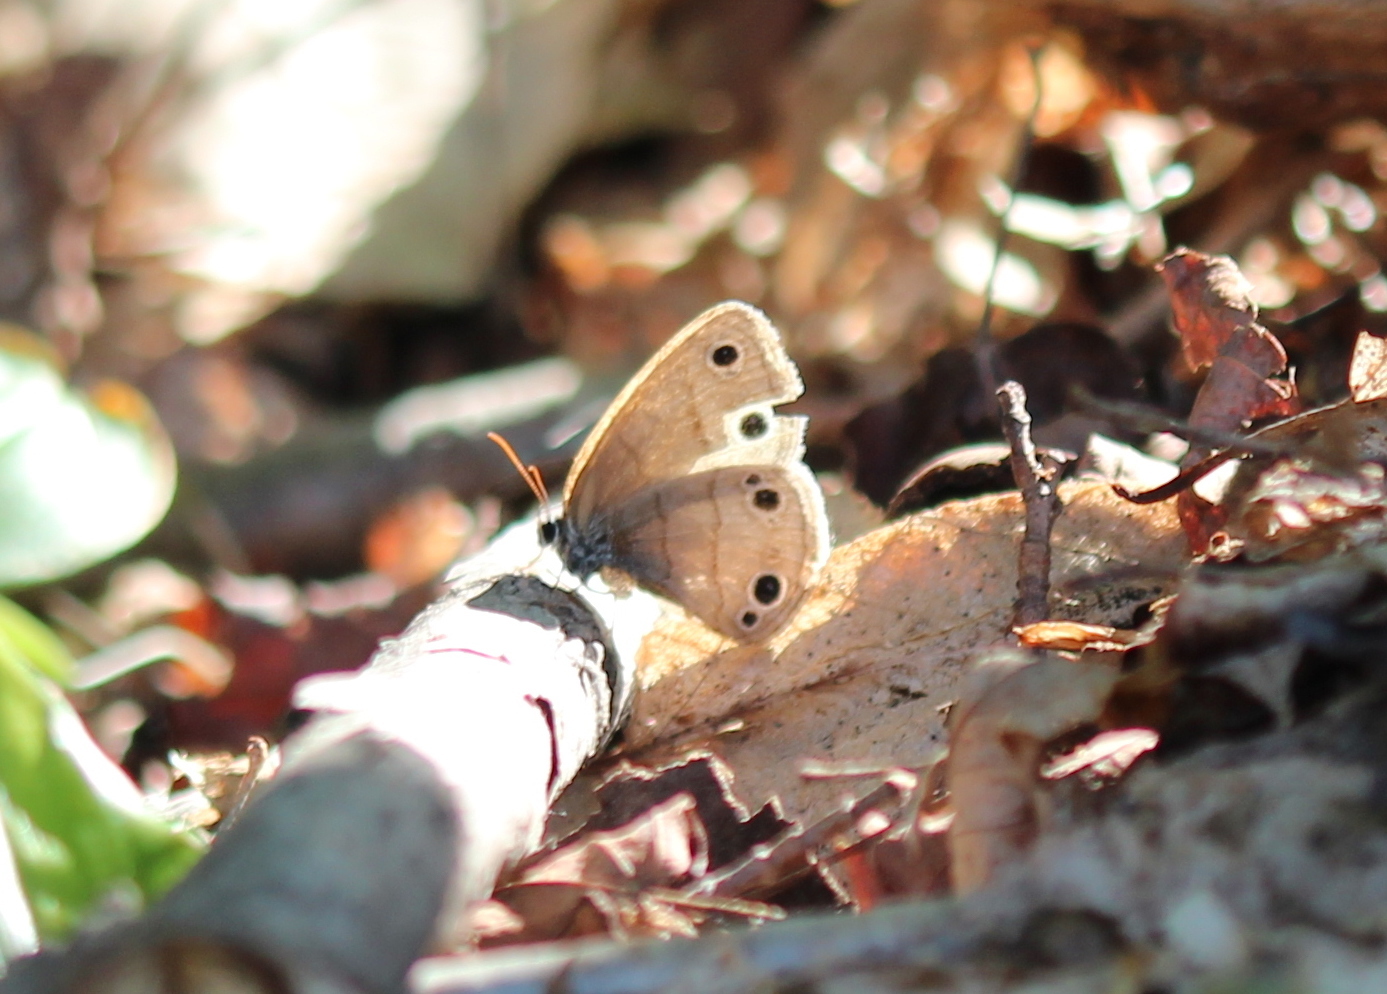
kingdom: Animalia
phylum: Arthropoda
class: Insecta
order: Lepidoptera
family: Nymphalidae
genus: Euptychia
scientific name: Euptychia cymela
